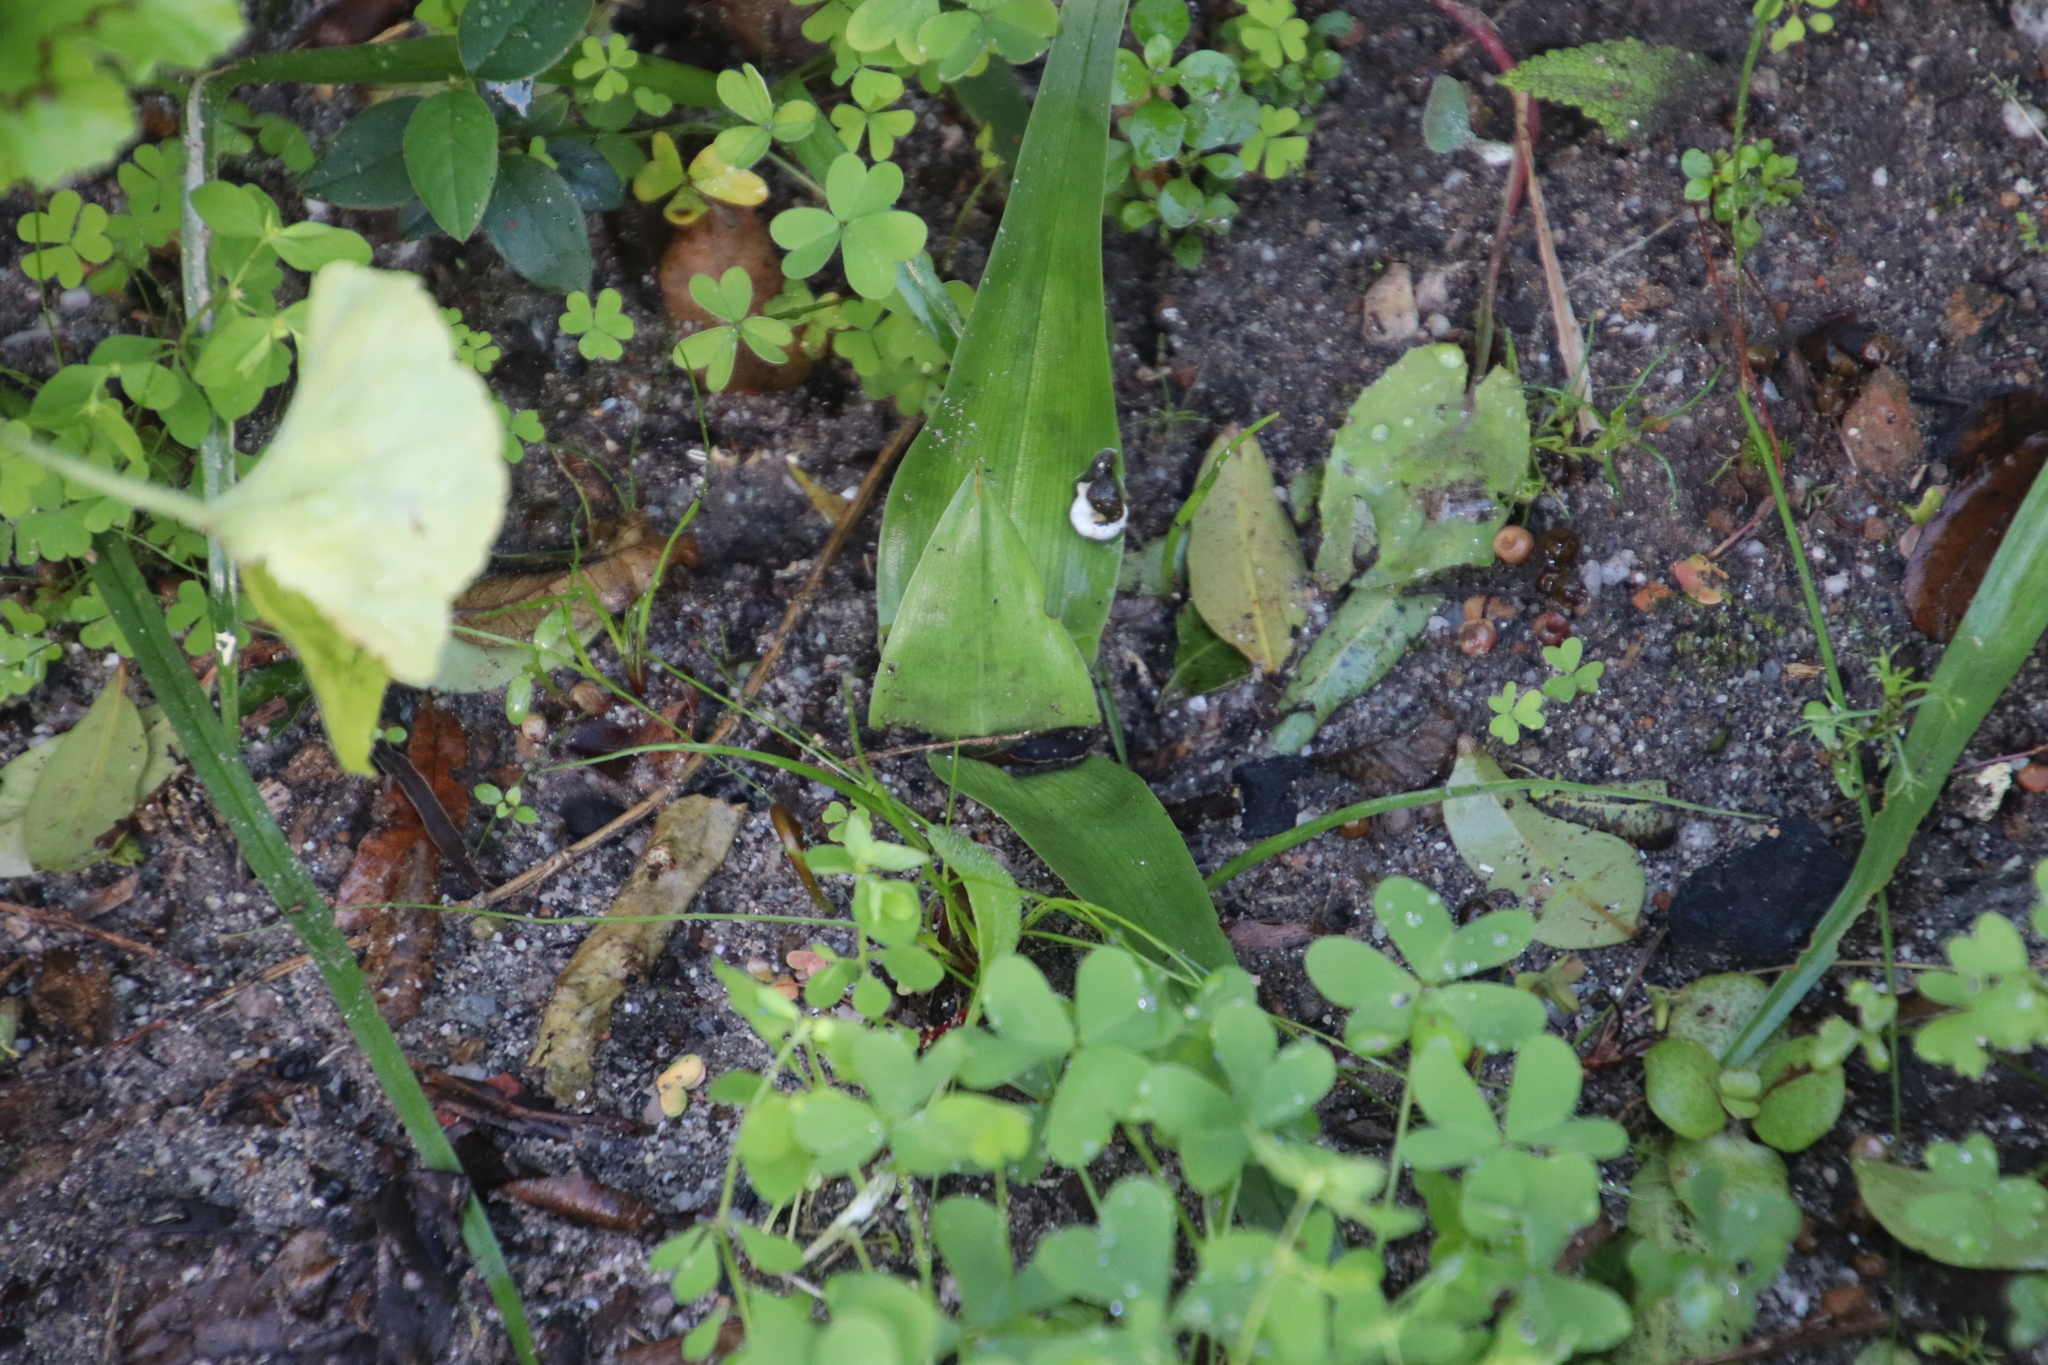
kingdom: Plantae
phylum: Tracheophyta
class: Liliopsida
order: Liliales
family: Colchicaceae
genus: Colchicum
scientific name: Colchicum eucomoides
